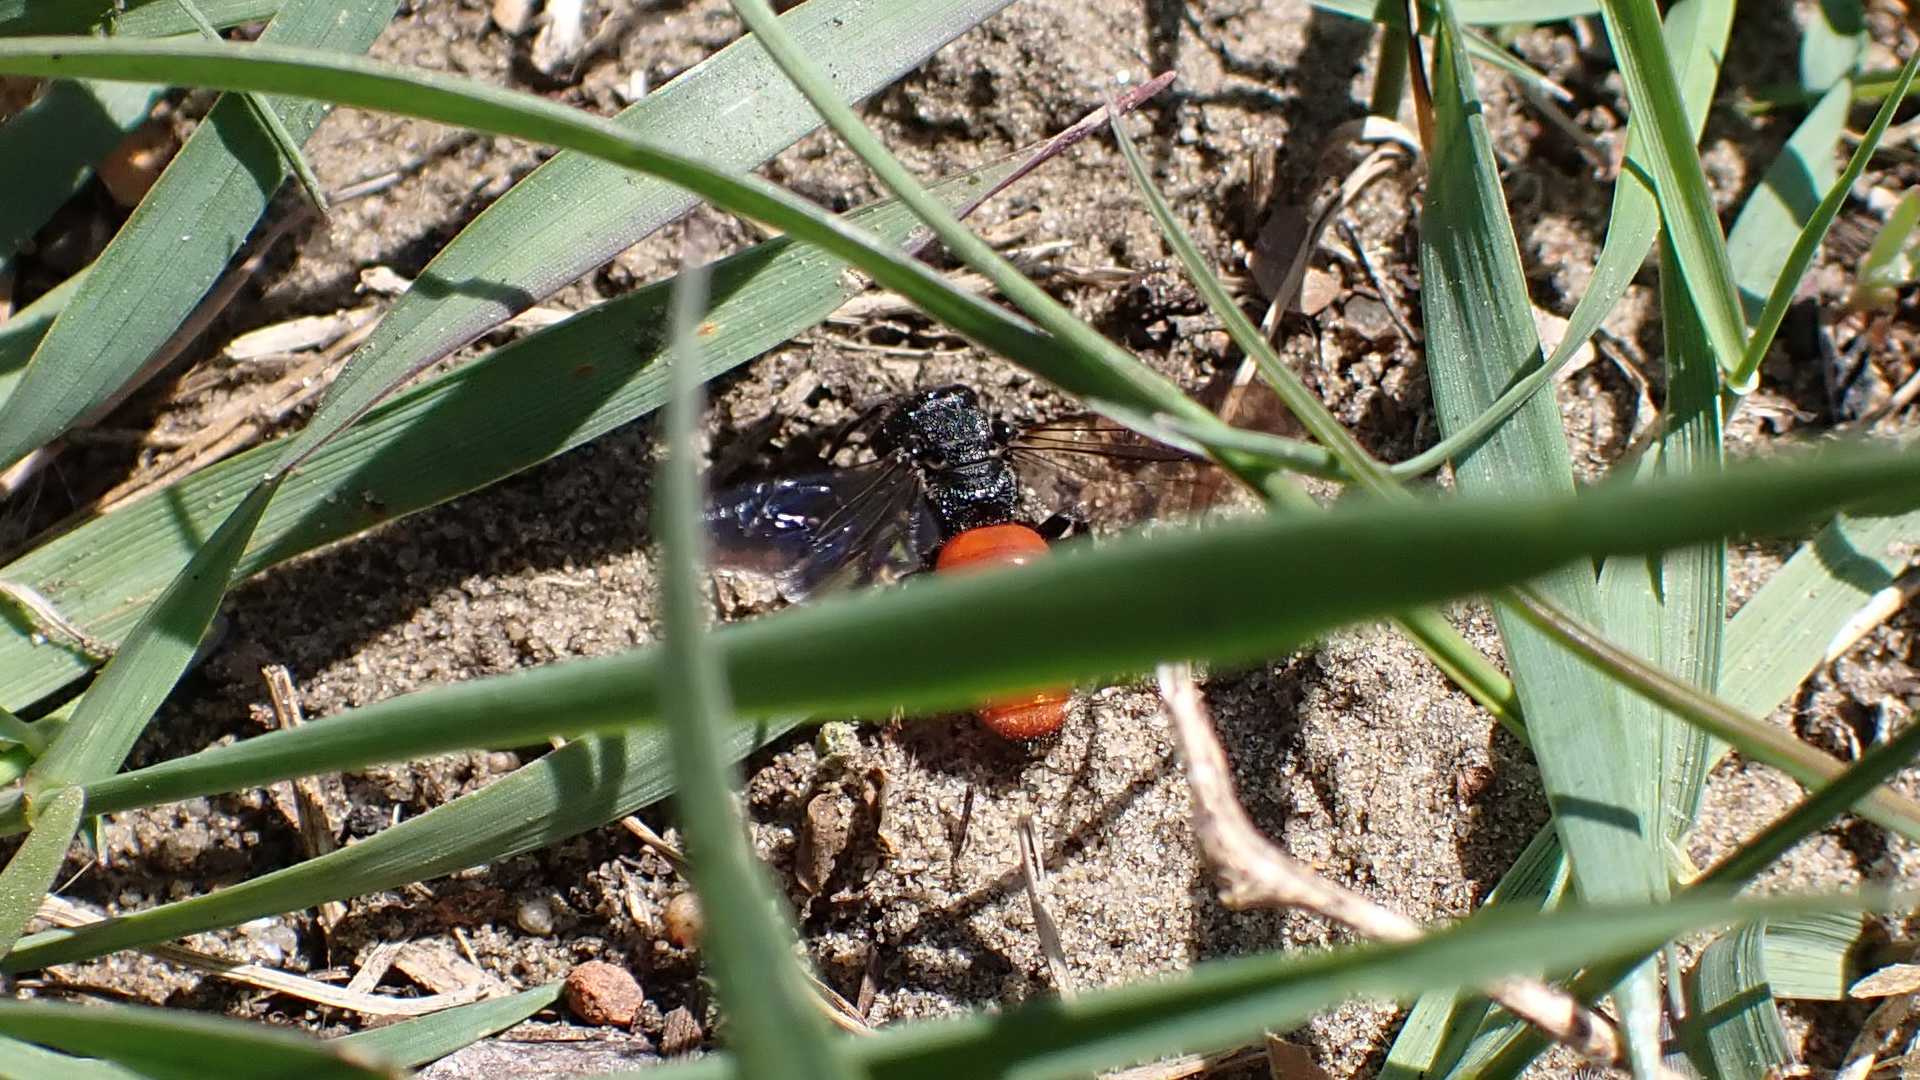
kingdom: Animalia
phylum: Arthropoda
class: Insecta
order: Hymenoptera
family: Halictidae
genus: Sphecodes
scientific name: Sphecodes albilabris
